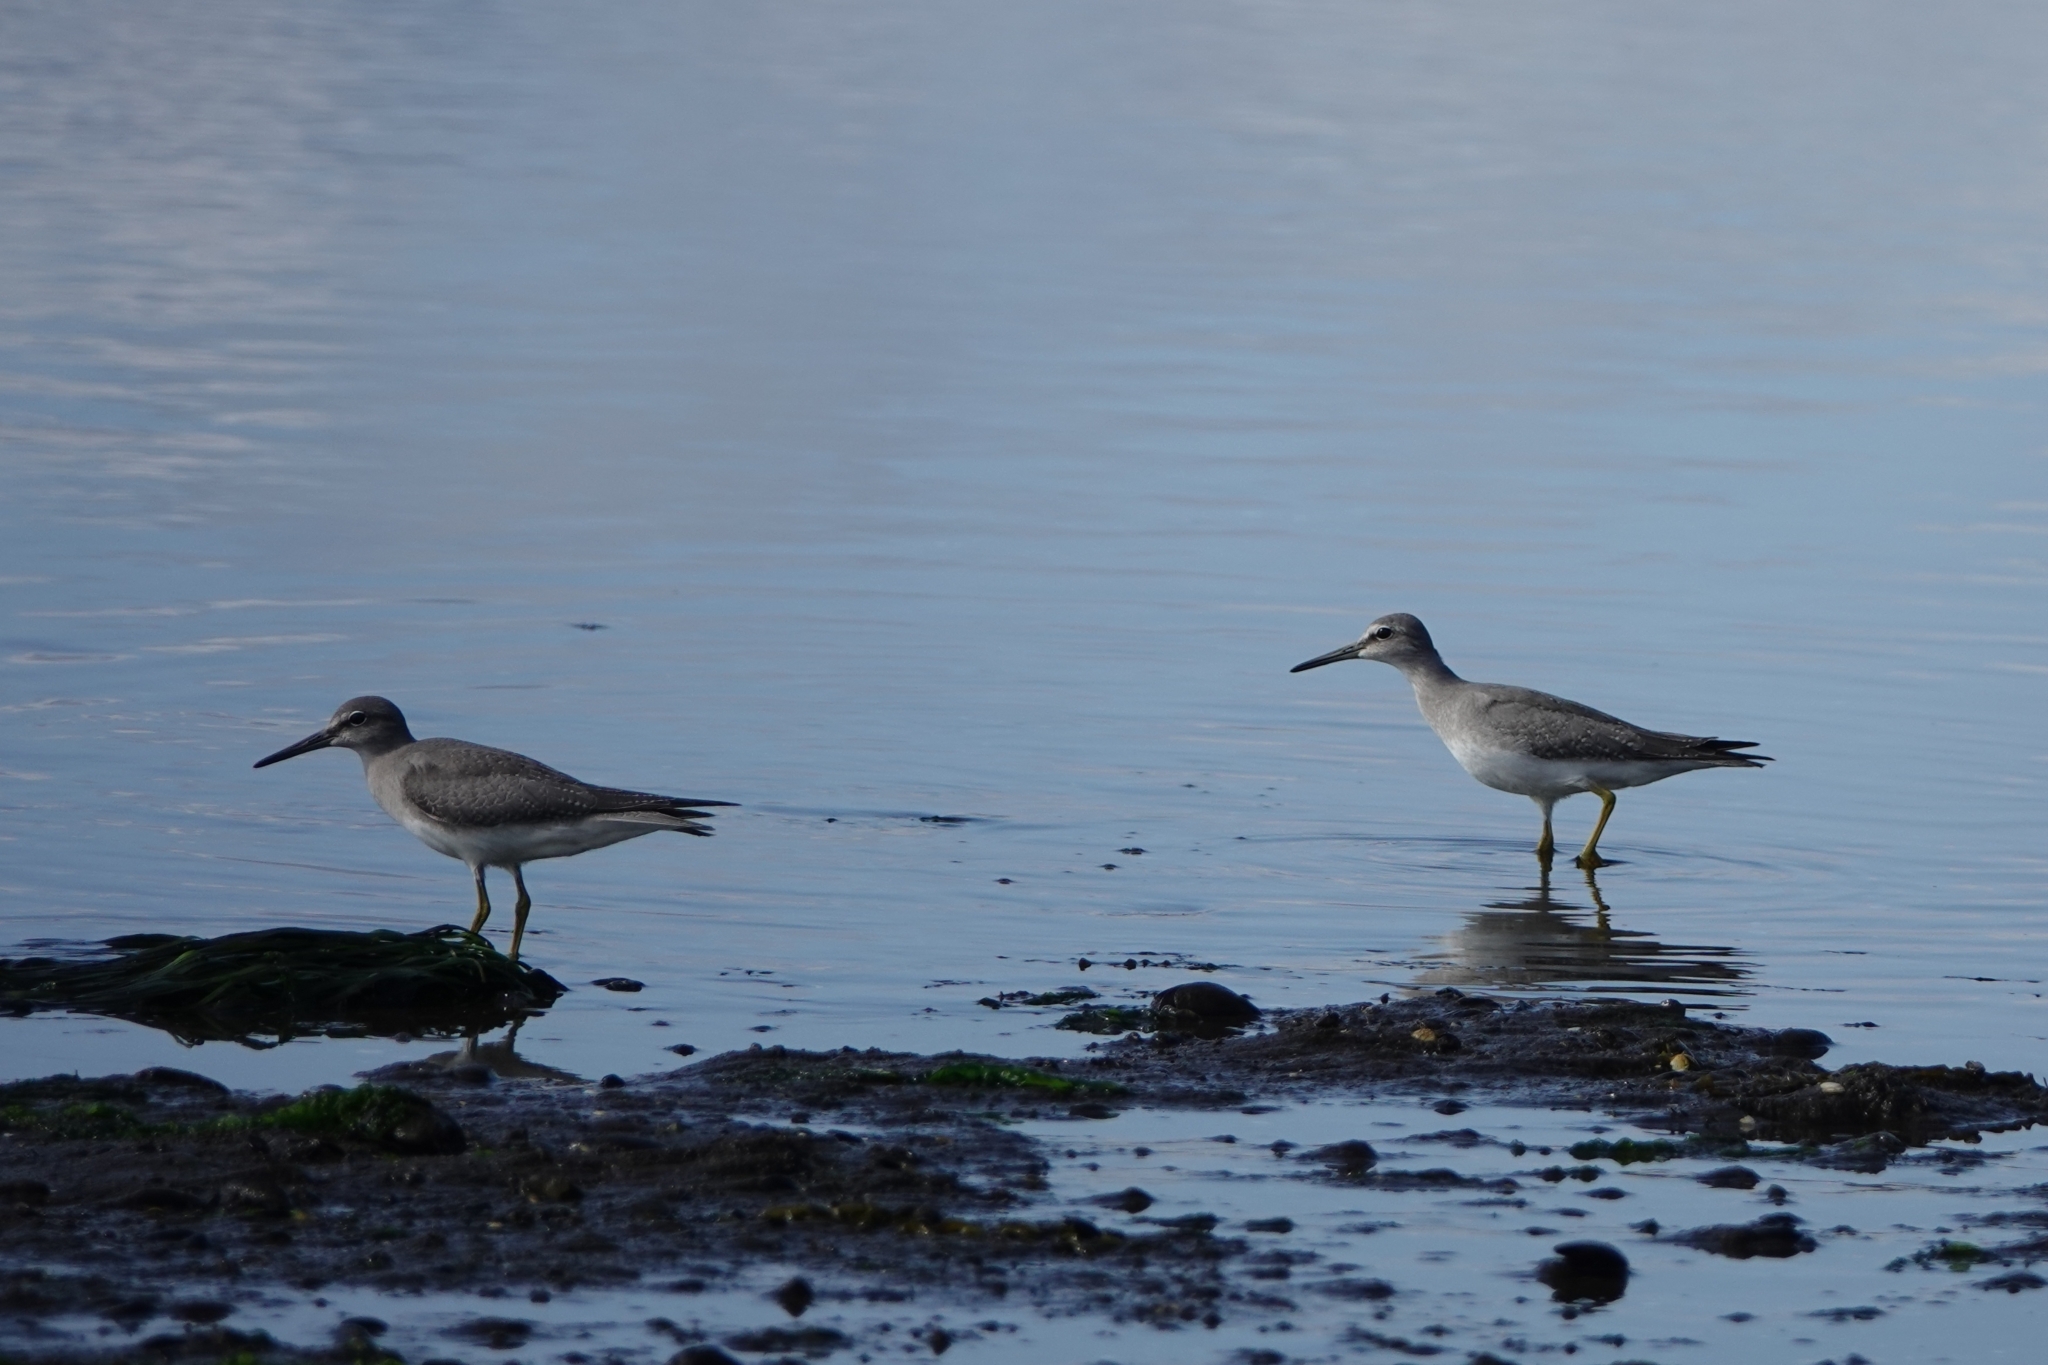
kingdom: Animalia
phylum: Chordata
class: Aves
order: Charadriiformes
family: Scolopacidae
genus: Tringa
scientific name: Tringa brevipes
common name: Grey-tailed tattler
